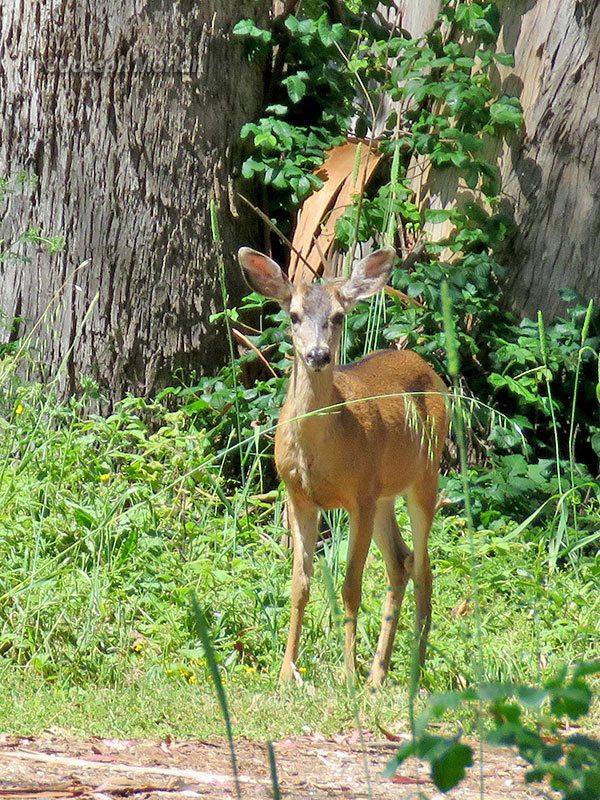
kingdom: Animalia
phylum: Chordata
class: Mammalia
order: Artiodactyla
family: Cervidae
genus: Odocoileus
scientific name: Odocoileus hemionus
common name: Mule deer
